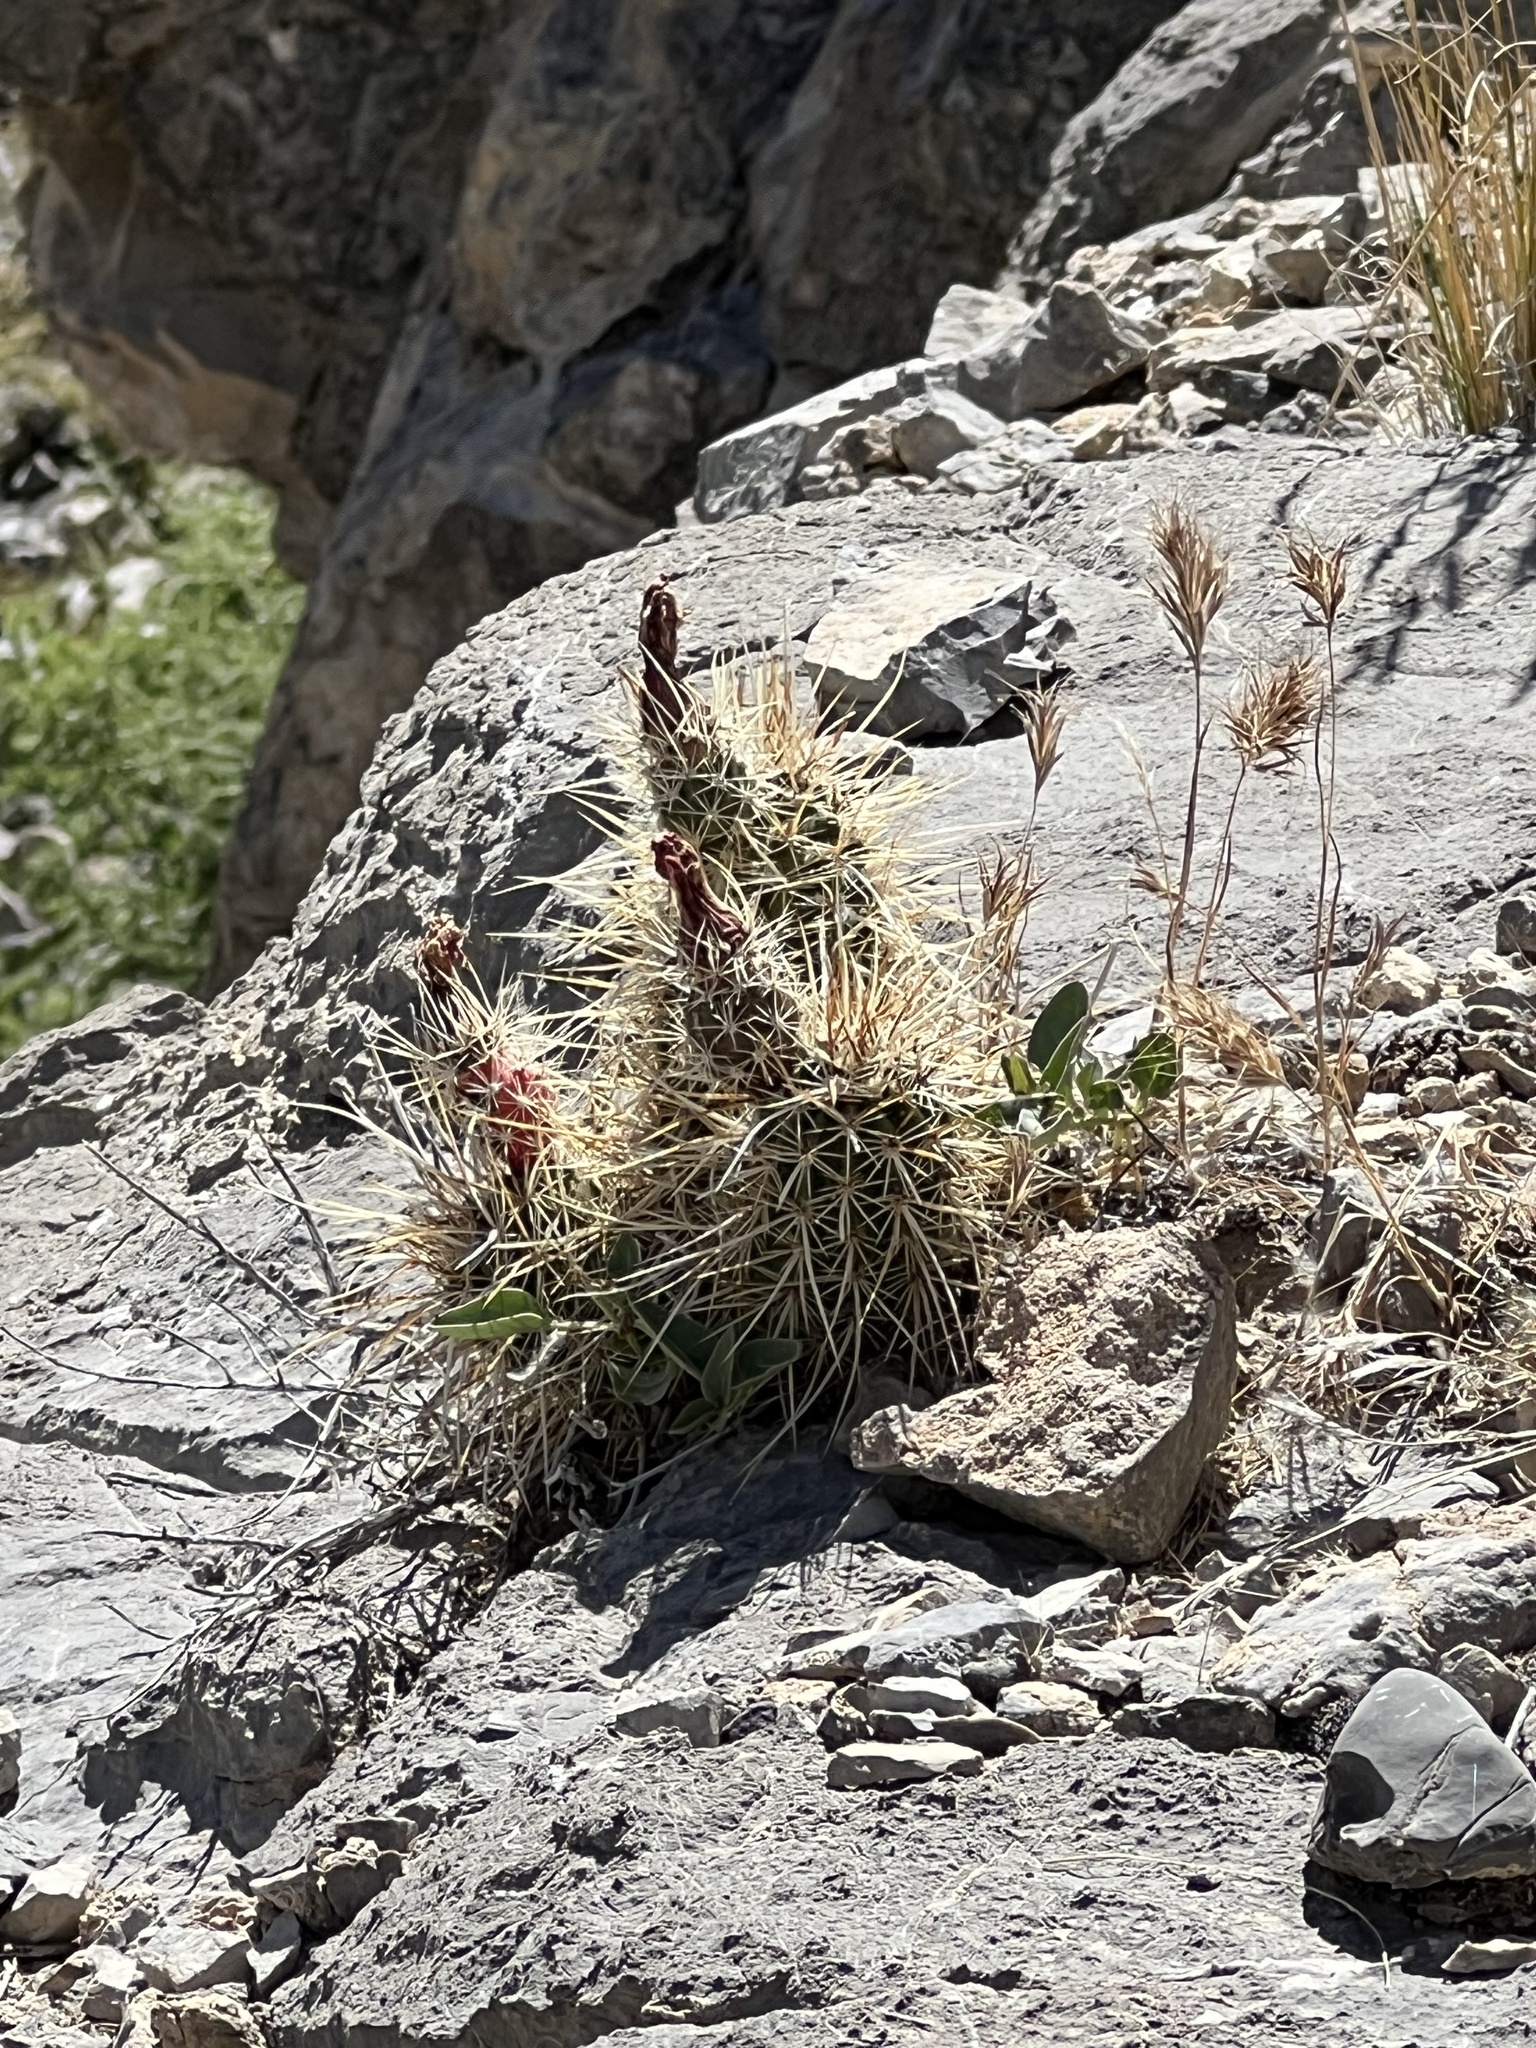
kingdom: Plantae
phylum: Tracheophyta
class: Magnoliopsida
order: Caryophyllales
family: Cactaceae
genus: Echinocereus
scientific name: Echinocereus engelmannii
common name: Engelmann's hedgehog cactus
